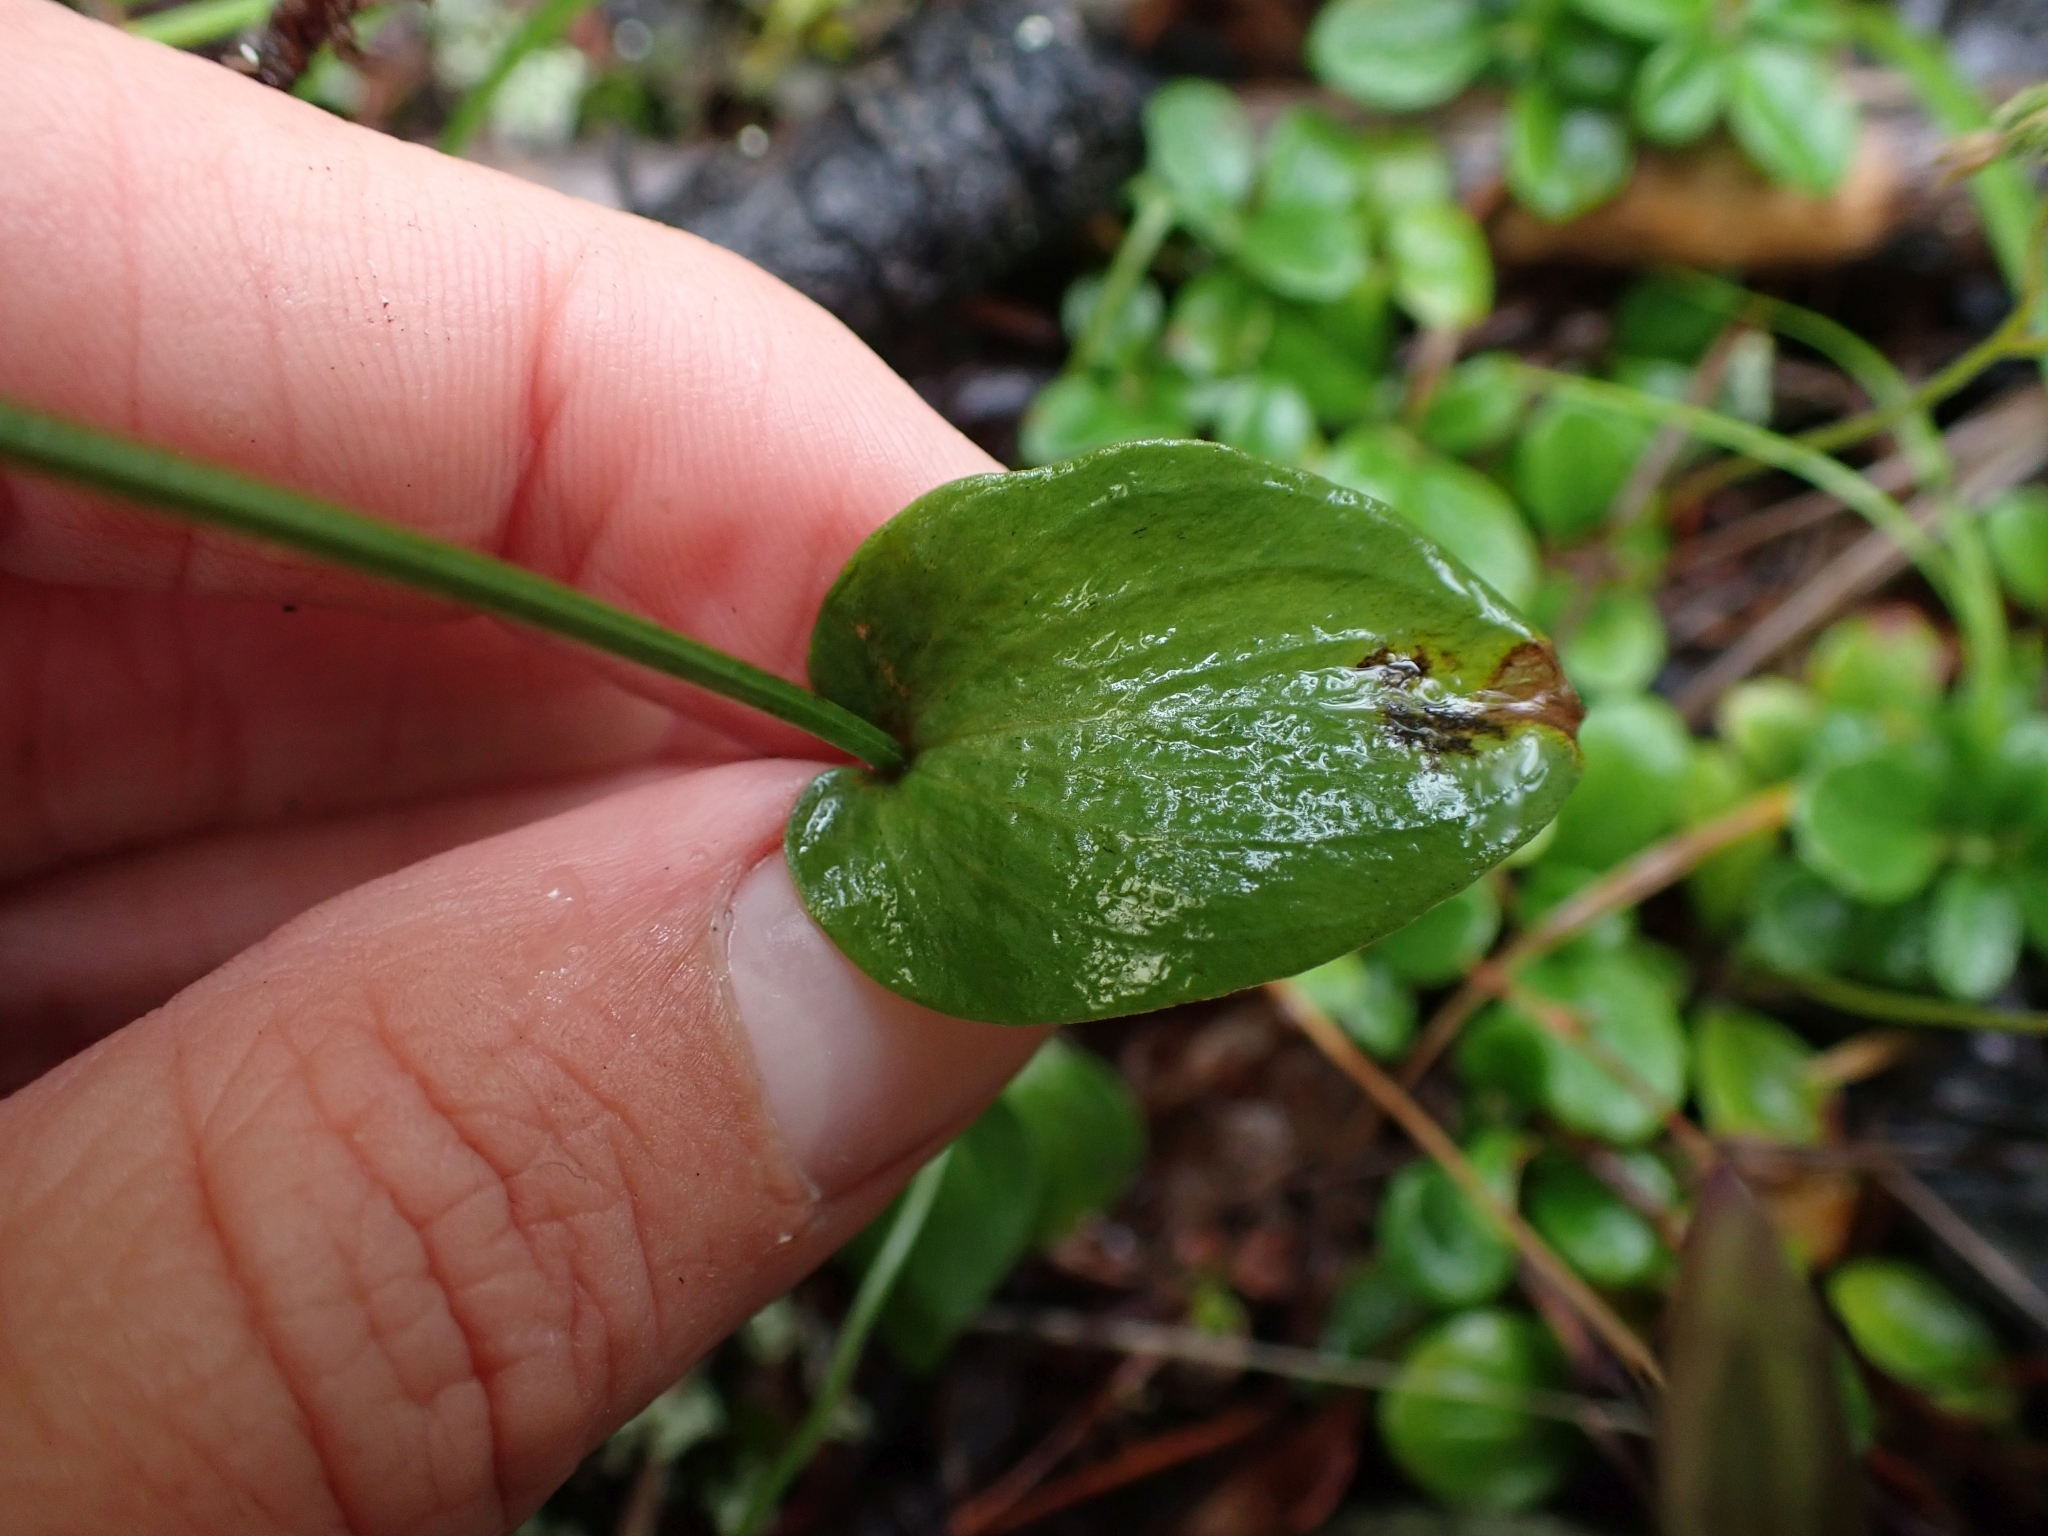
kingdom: Plantae
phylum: Tracheophyta
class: Magnoliopsida
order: Celastrales
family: Parnassiaceae
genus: Parnassia
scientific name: Parnassia palustris
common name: Grass-of-parnassus
